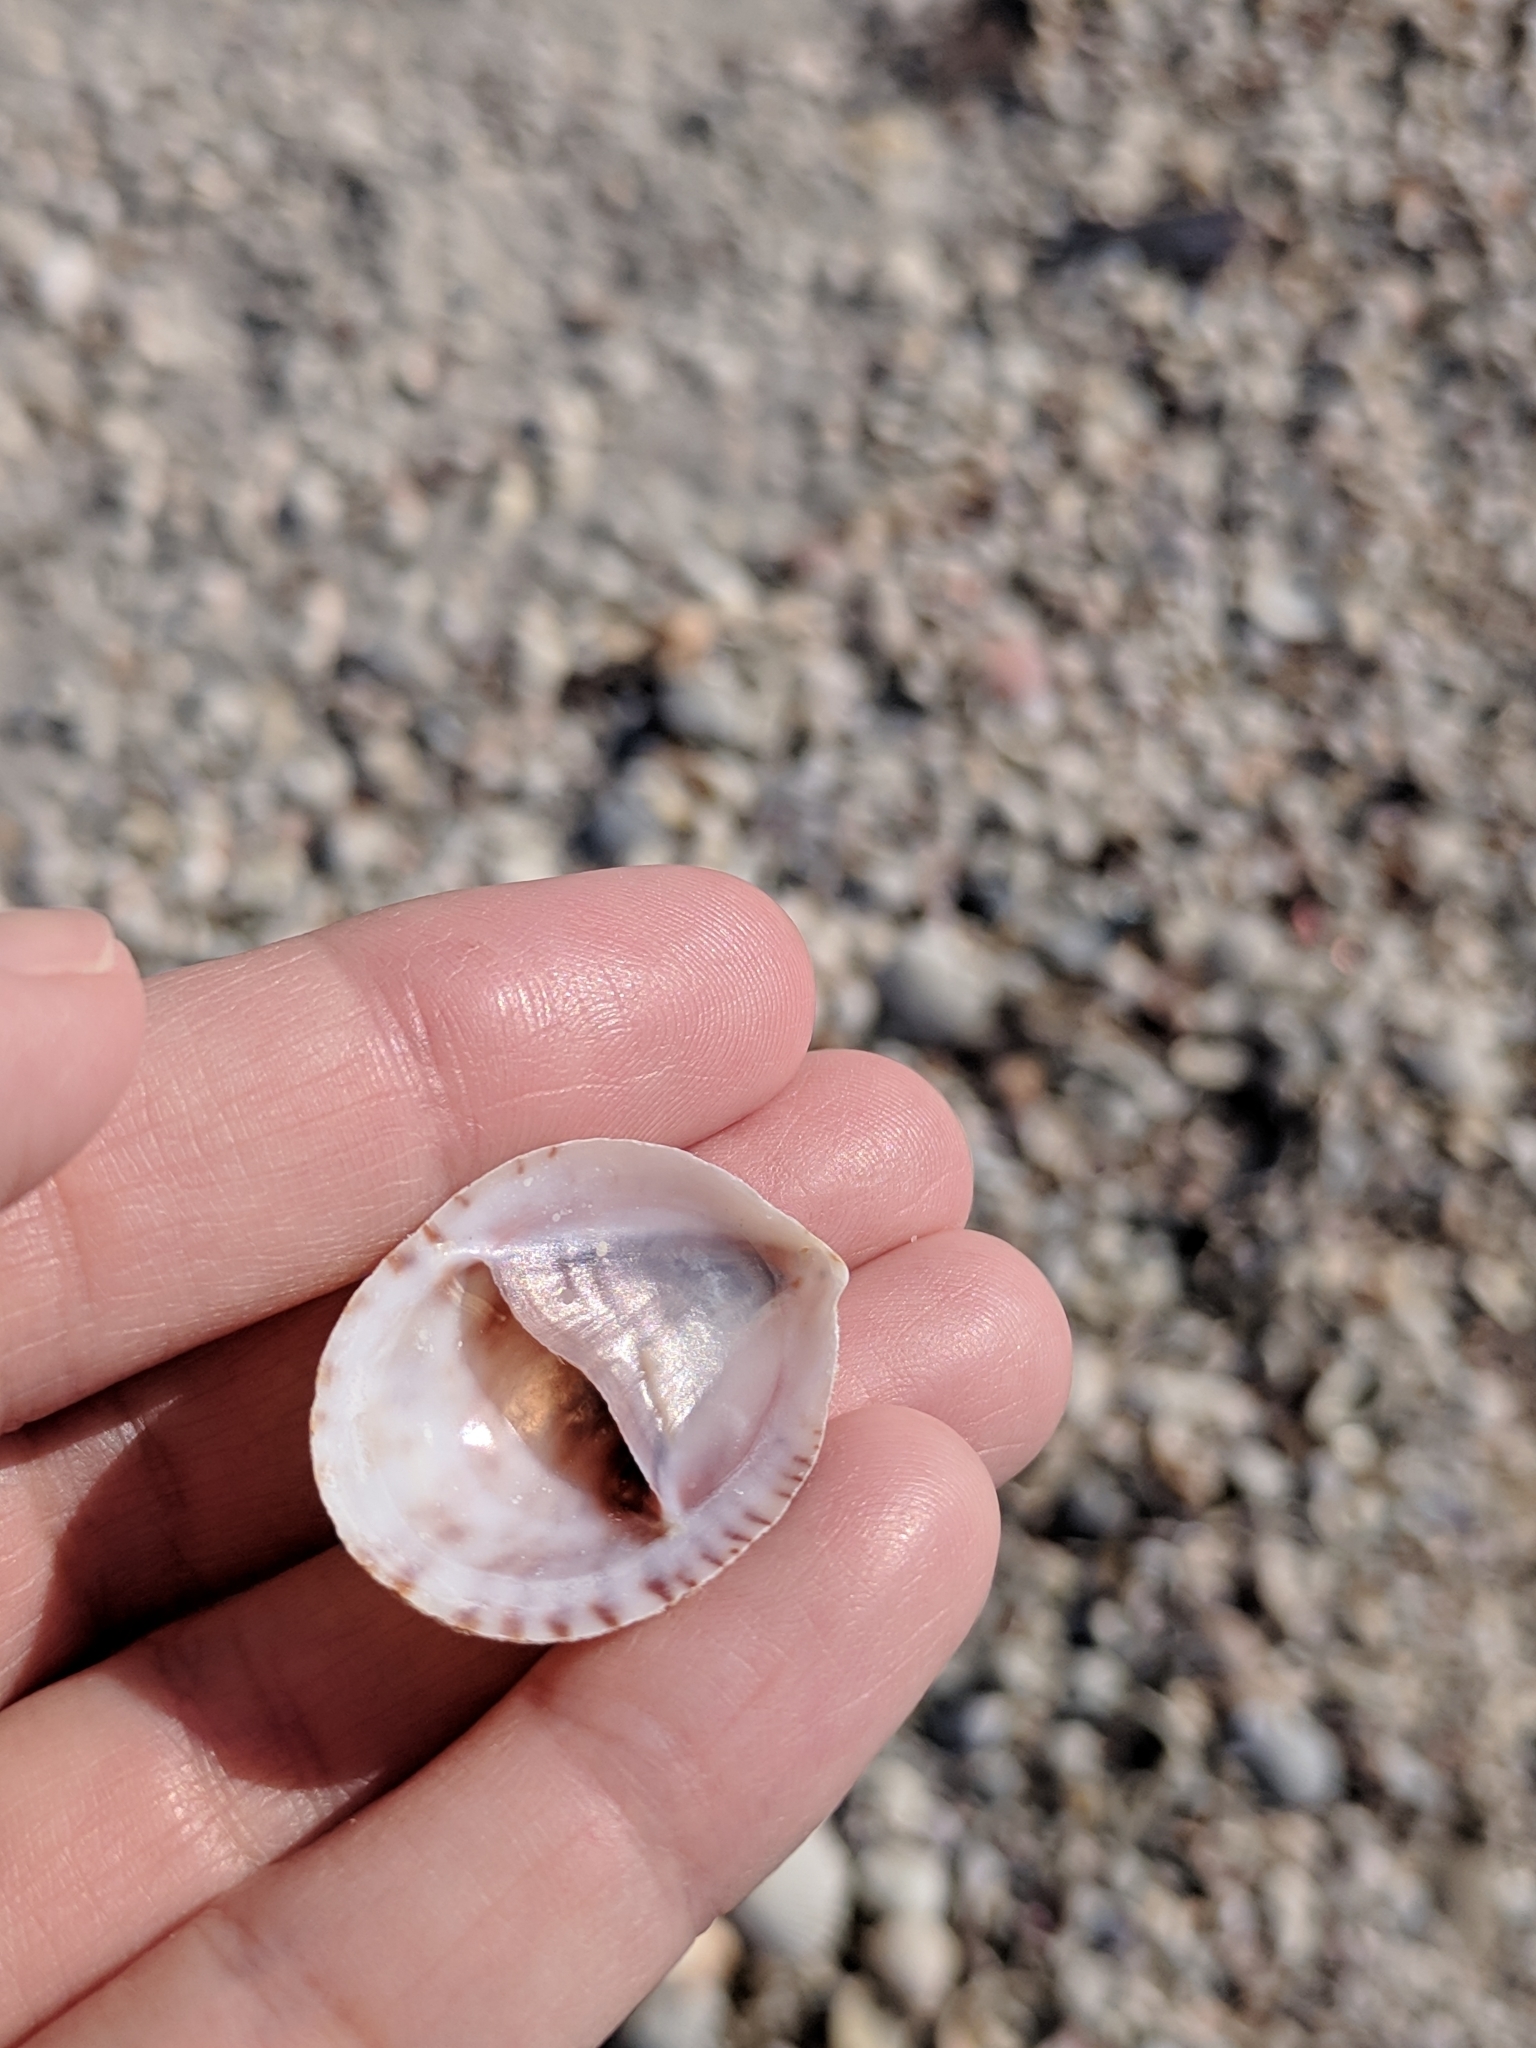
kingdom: Animalia
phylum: Mollusca
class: Gastropoda
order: Littorinimorpha
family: Calyptraeidae
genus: Crepidula
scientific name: Crepidula fornicata
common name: Slipper limpet
